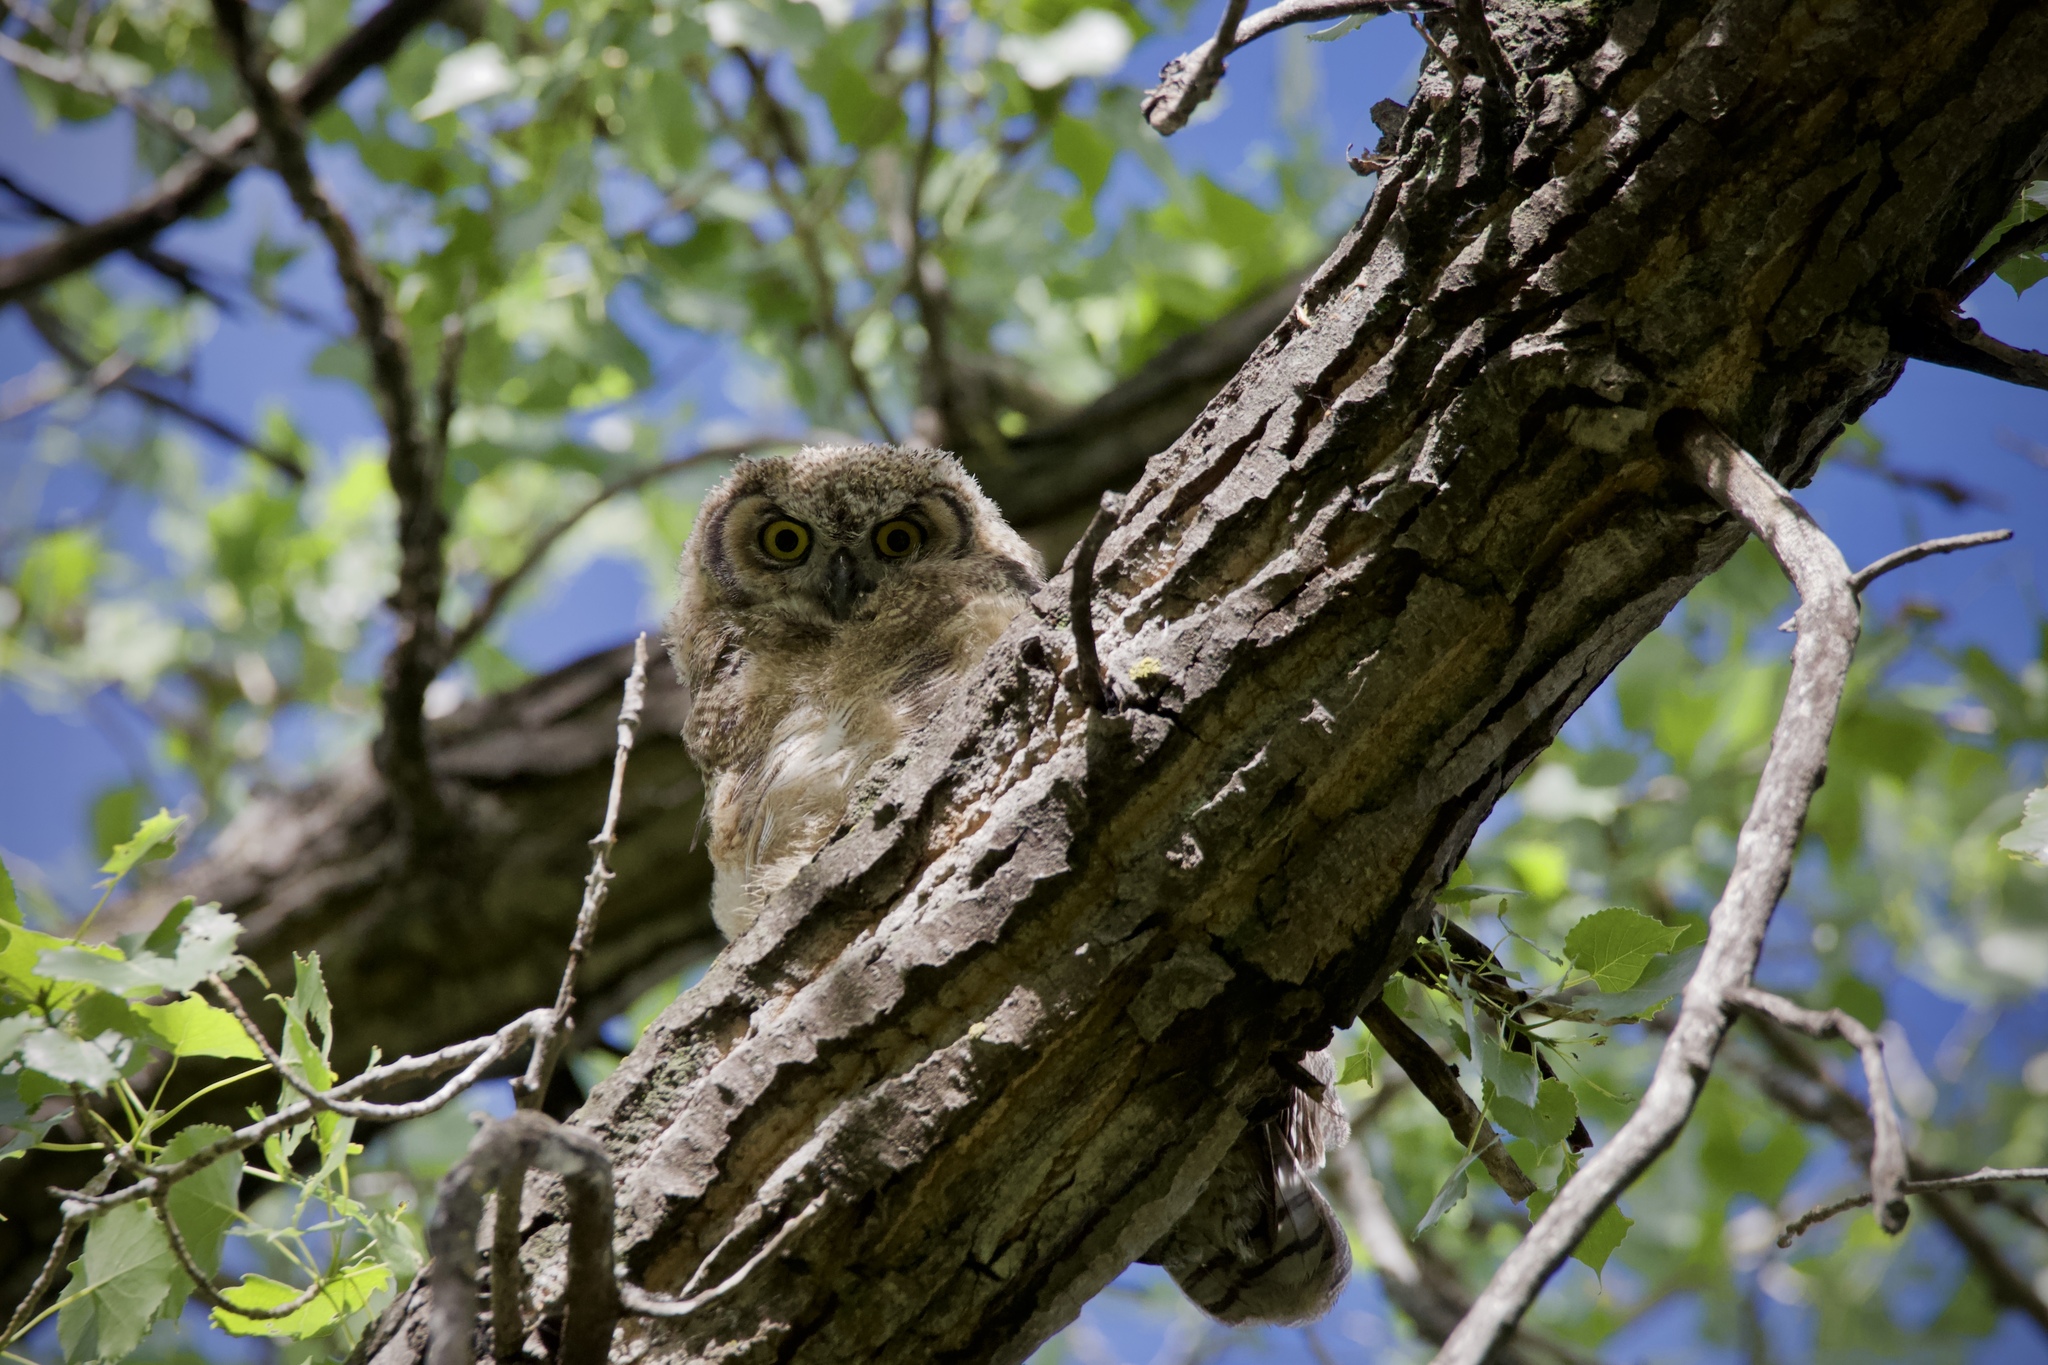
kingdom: Animalia
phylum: Chordata
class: Aves
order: Strigiformes
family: Strigidae
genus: Bubo
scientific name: Bubo virginianus
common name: Great horned owl
